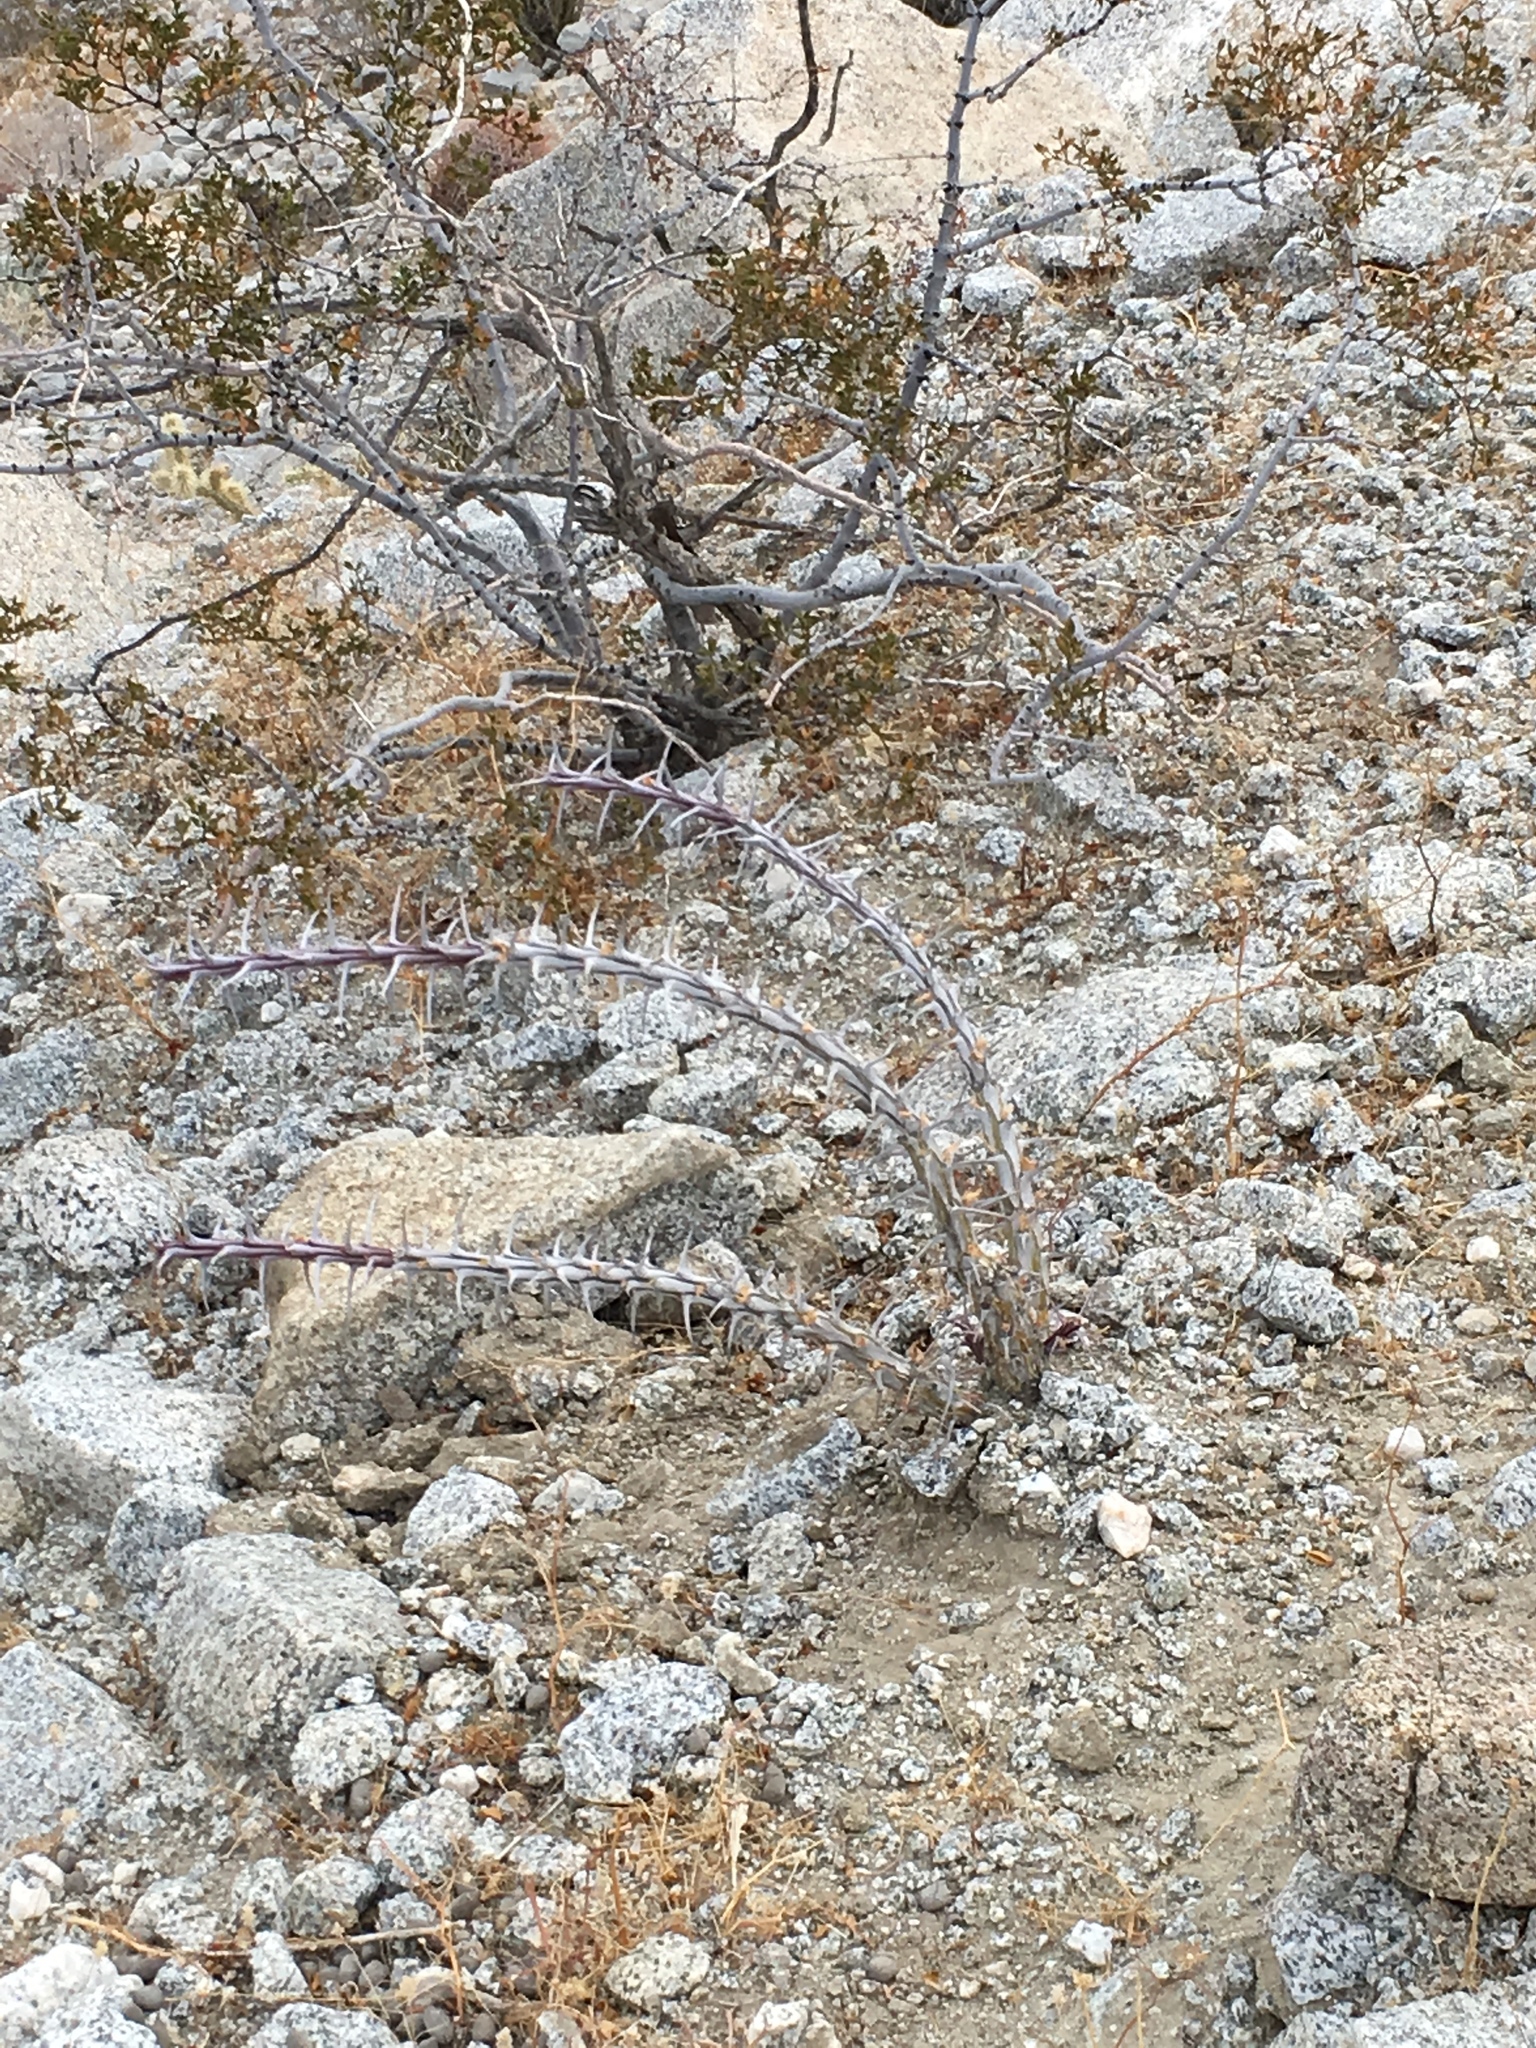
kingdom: Plantae
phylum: Tracheophyta
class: Magnoliopsida
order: Ericales
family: Fouquieriaceae
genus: Fouquieria
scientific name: Fouquieria splendens
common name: Vine-cactus
